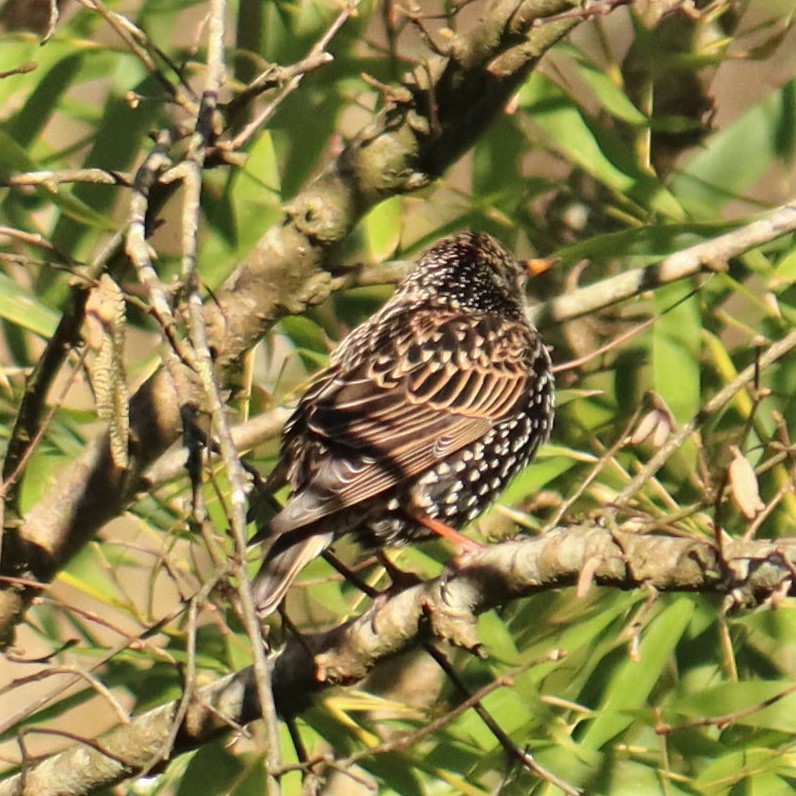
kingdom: Animalia
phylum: Chordata
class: Aves
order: Passeriformes
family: Sturnidae
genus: Sturnus
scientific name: Sturnus vulgaris
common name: Common starling
